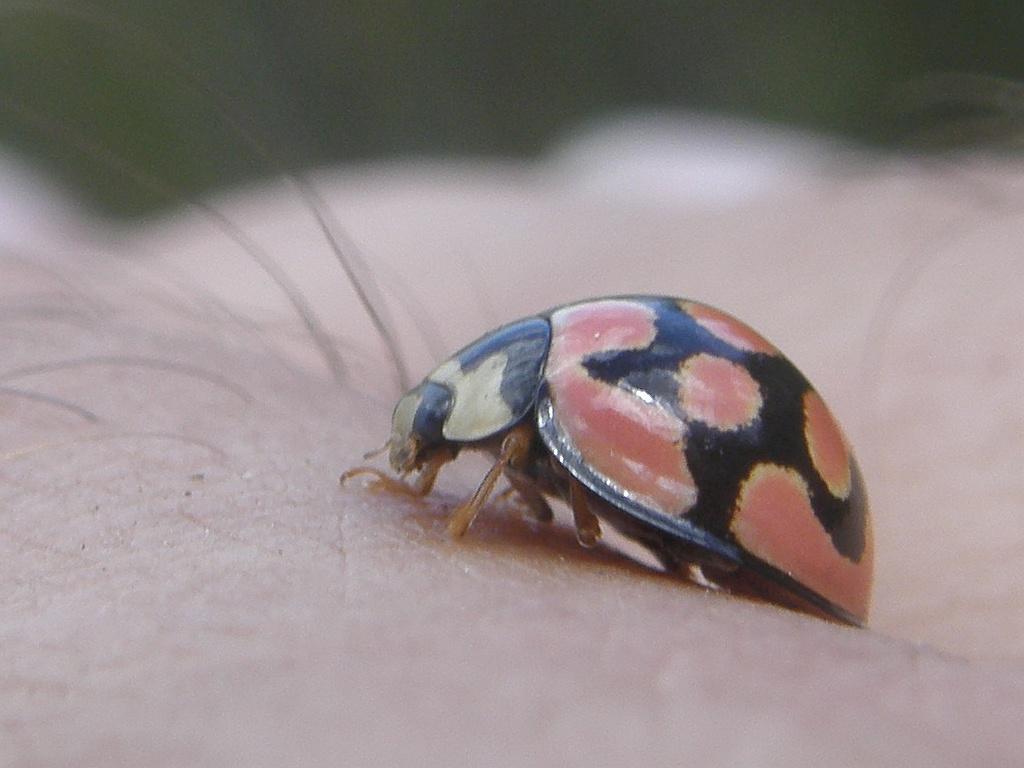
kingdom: Animalia
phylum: Arthropoda
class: Insecta
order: Coleoptera
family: Coccinellidae
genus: Cheilomenes
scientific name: Cheilomenes lunata
